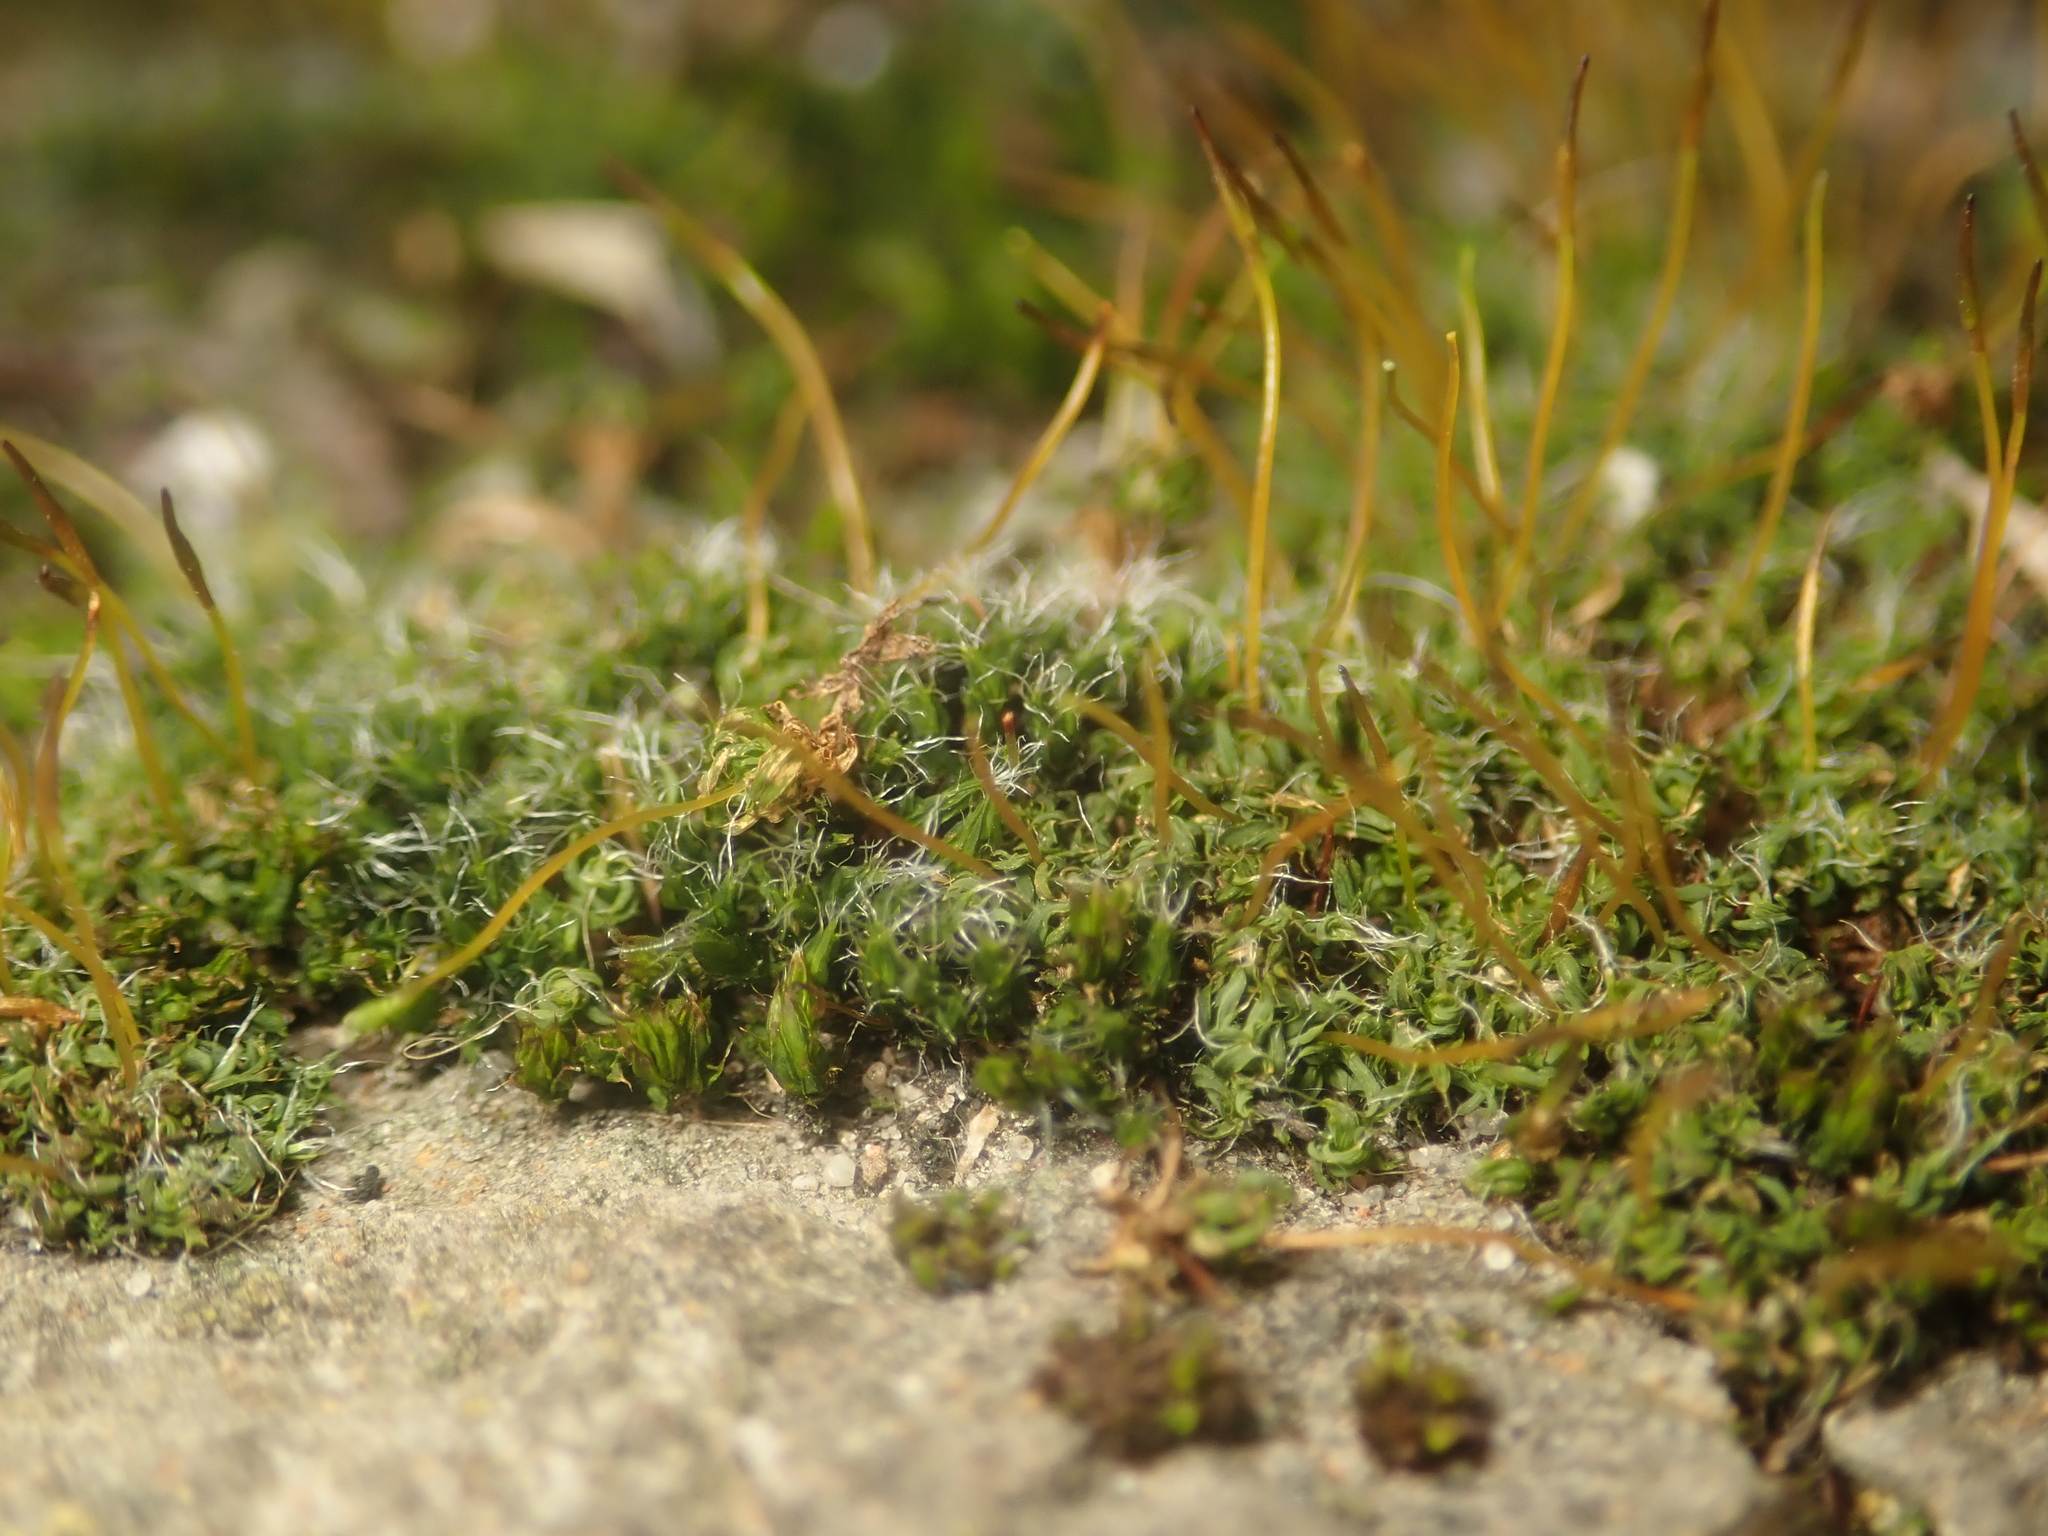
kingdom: Plantae
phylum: Bryophyta
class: Bryopsida
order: Pottiales
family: Pottiaceae
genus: Tortula
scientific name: Tortula muralis
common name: Wall screw-moss
